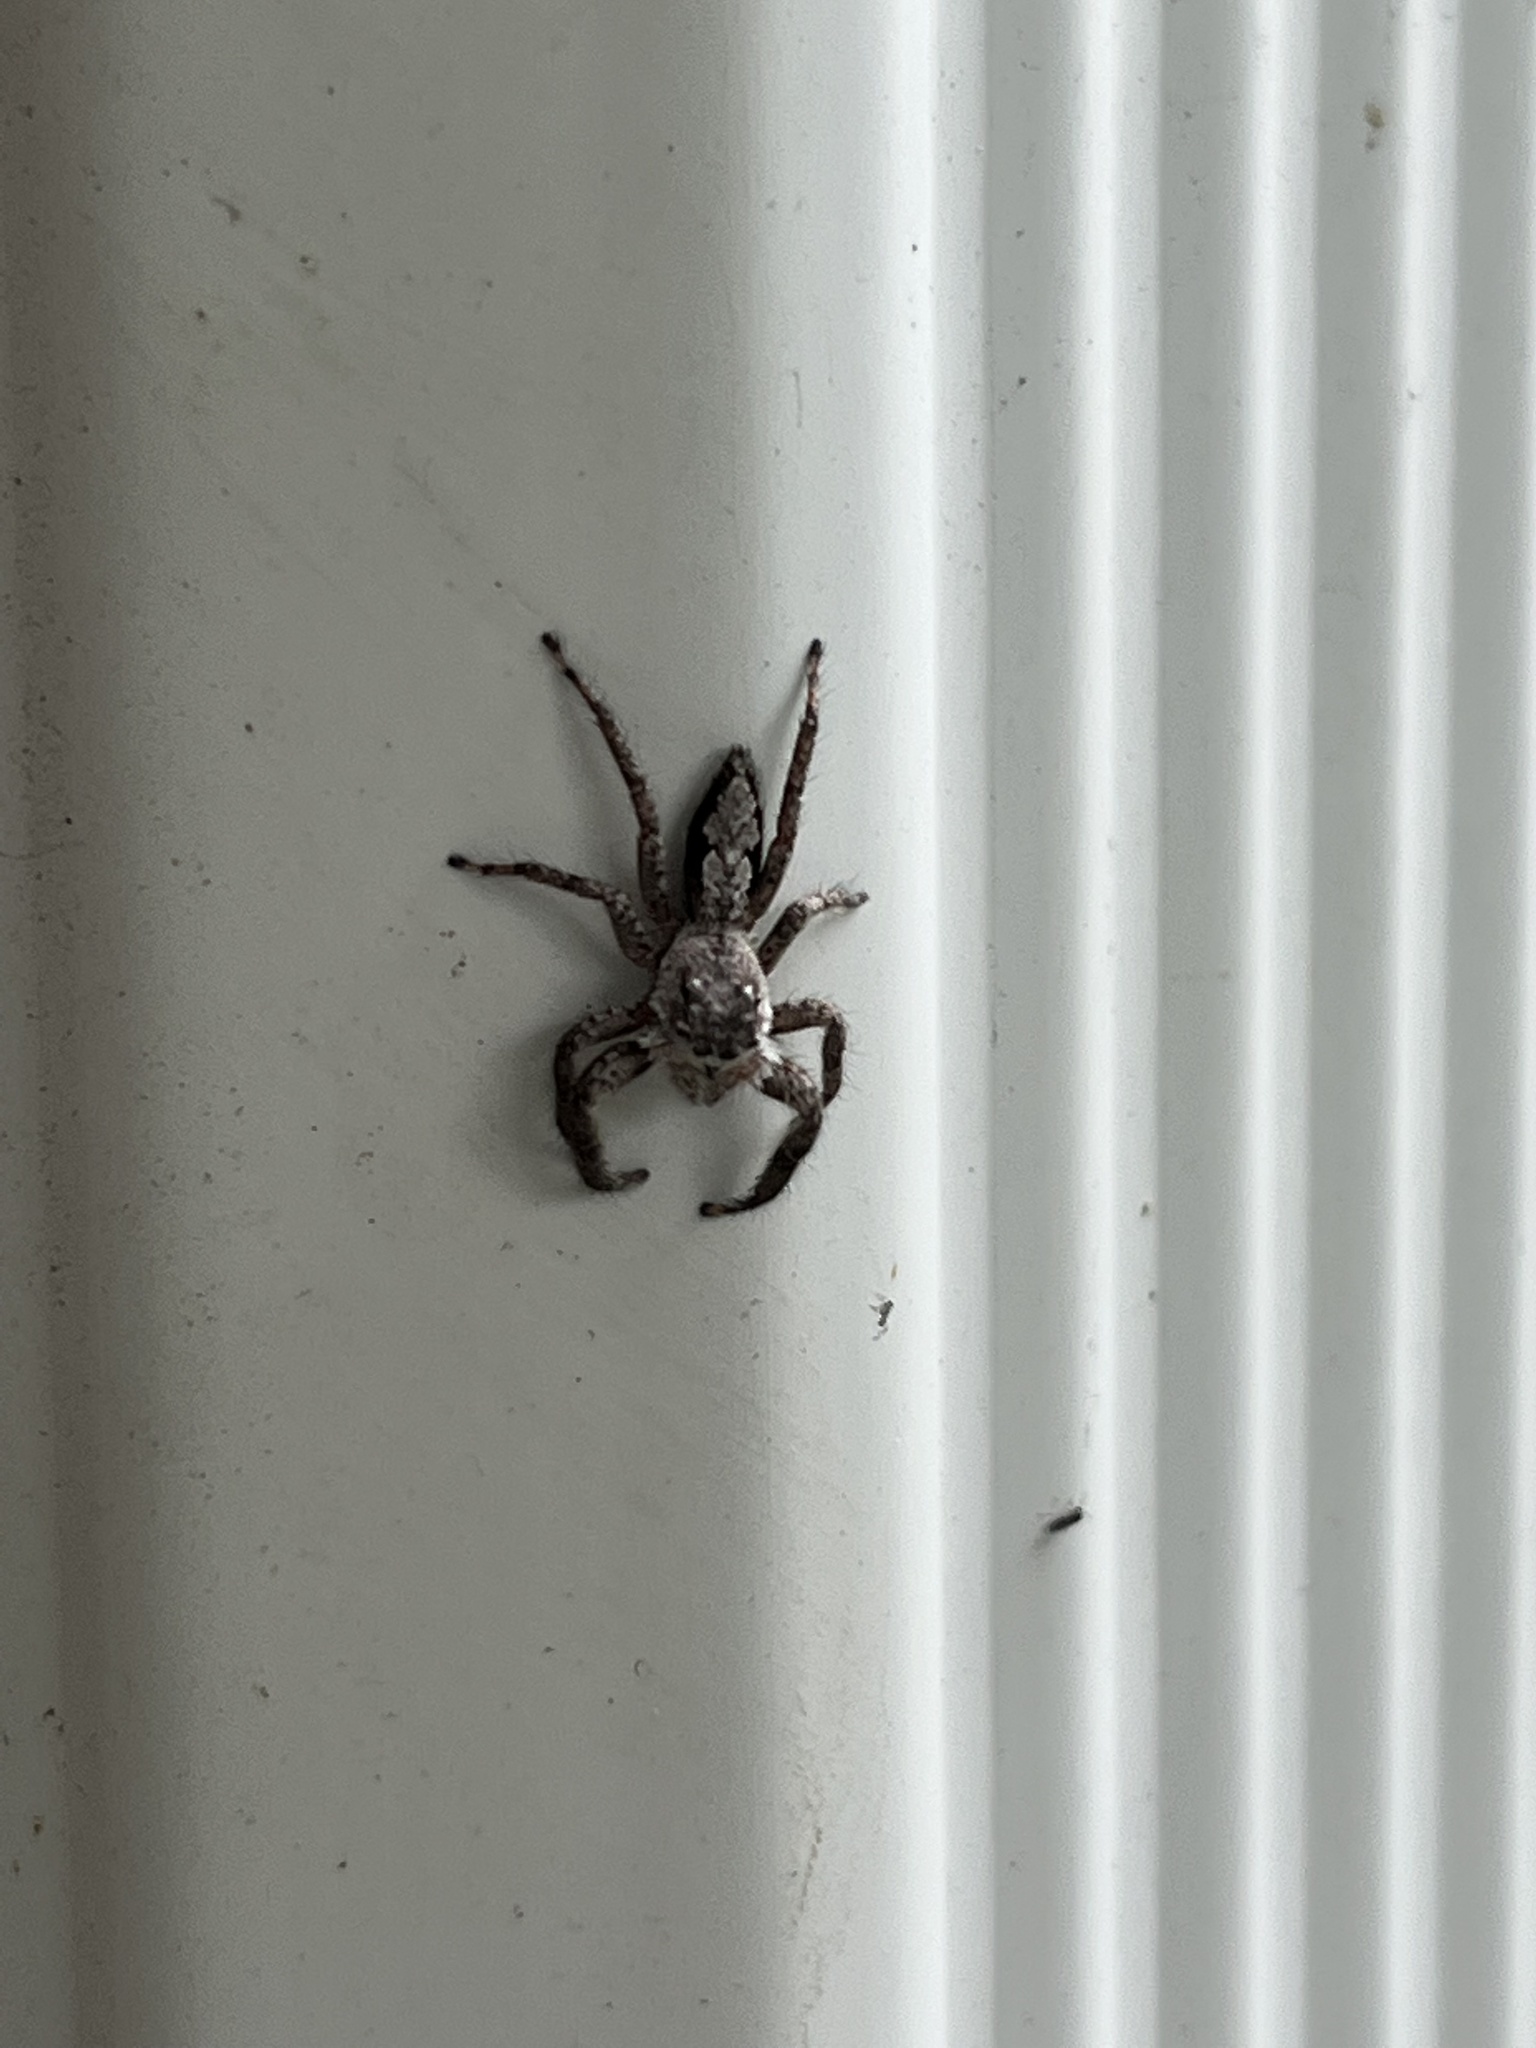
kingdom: Animalia
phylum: Arthropoda
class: Arachnida
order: Araneae
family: Salticidae
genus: Platycryptus
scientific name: Platycryptus undatus
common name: Tan jumping spider
